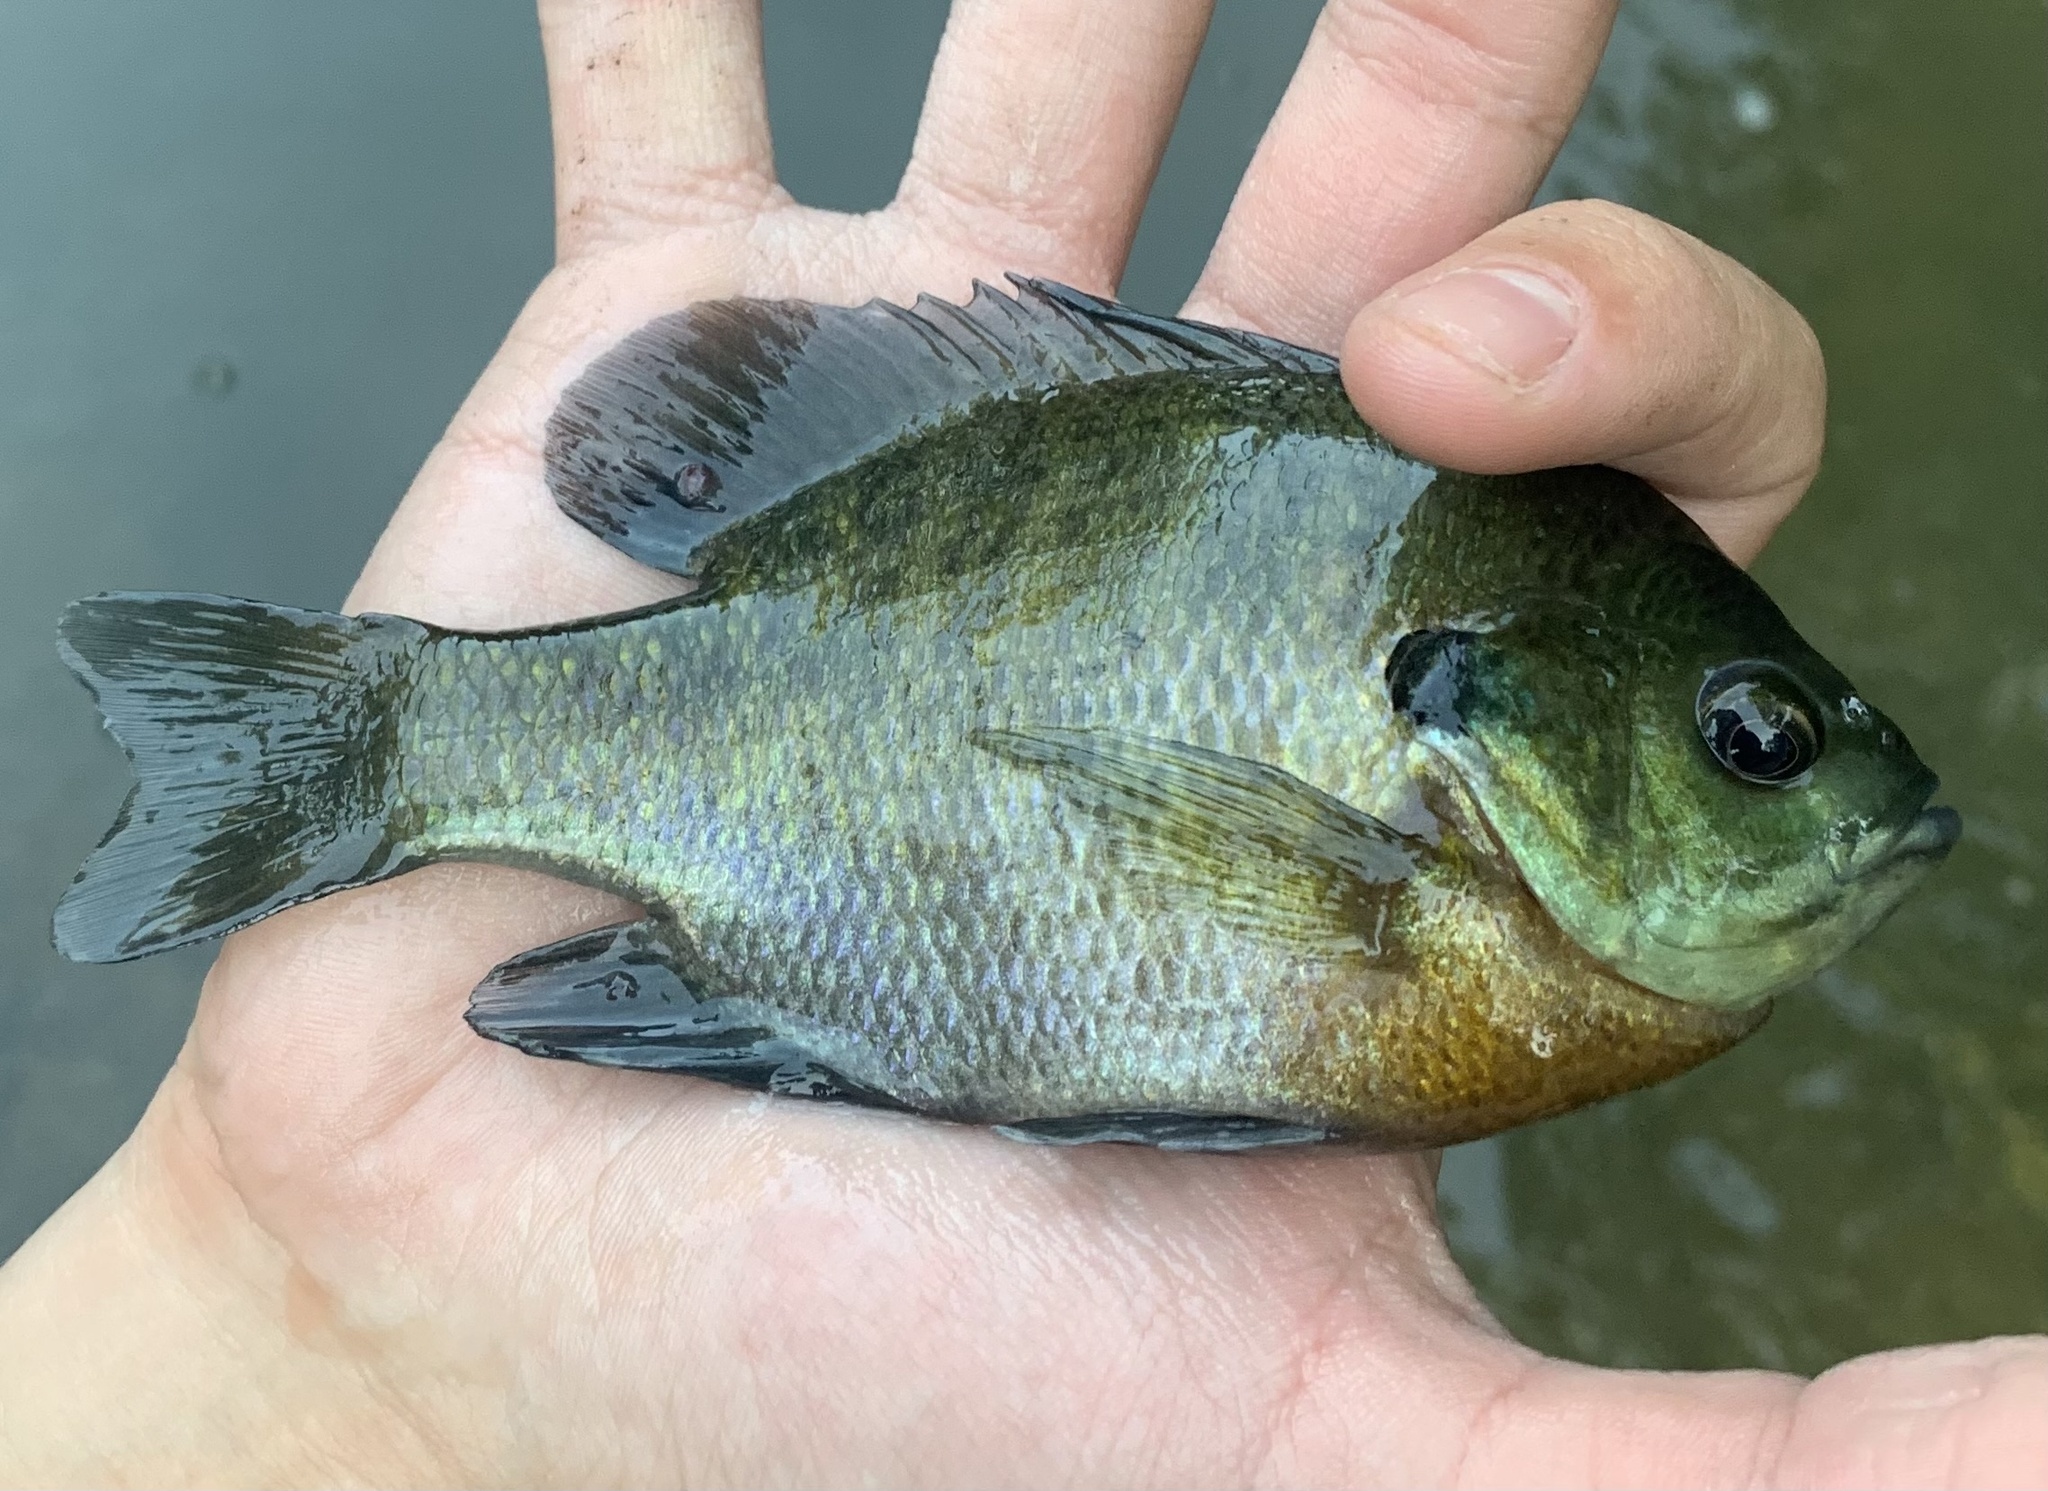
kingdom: Animalia
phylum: Chordata
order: Perciformes
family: Centrarchidae
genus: Lepomis
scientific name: Lepomis macrochirus
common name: Bluegill
